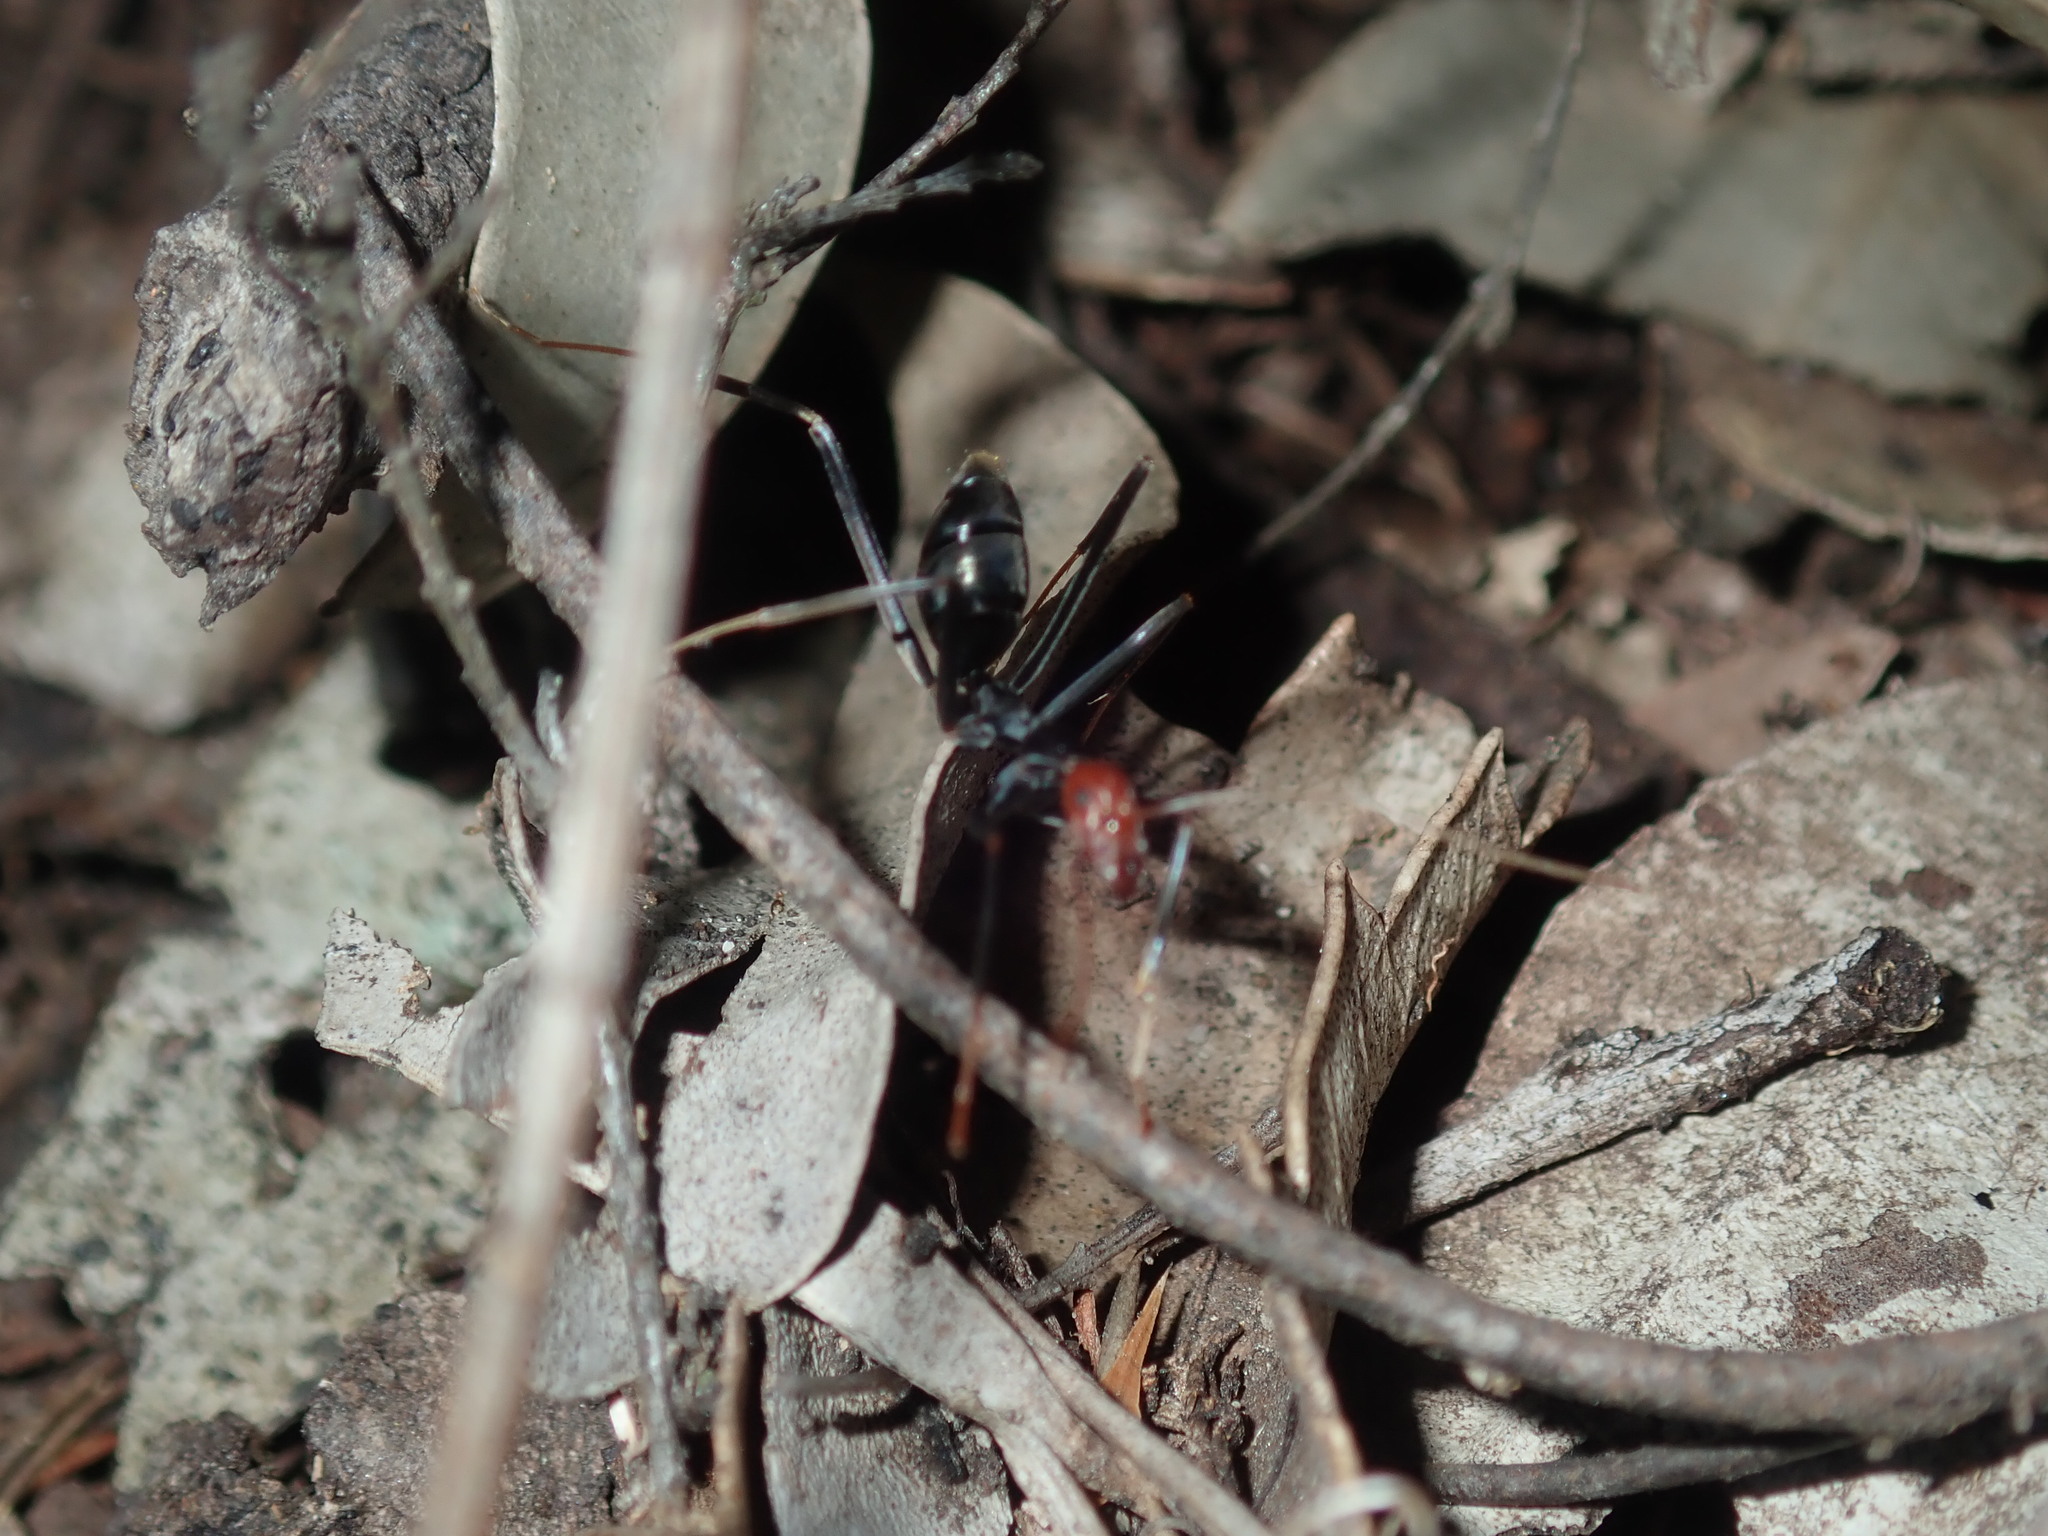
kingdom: Animalia
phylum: Arthropoda
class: Insecta
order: Hymenoptera
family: Formicidae
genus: Leptomyrmex
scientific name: Leptomyrmex erythrocephalus
